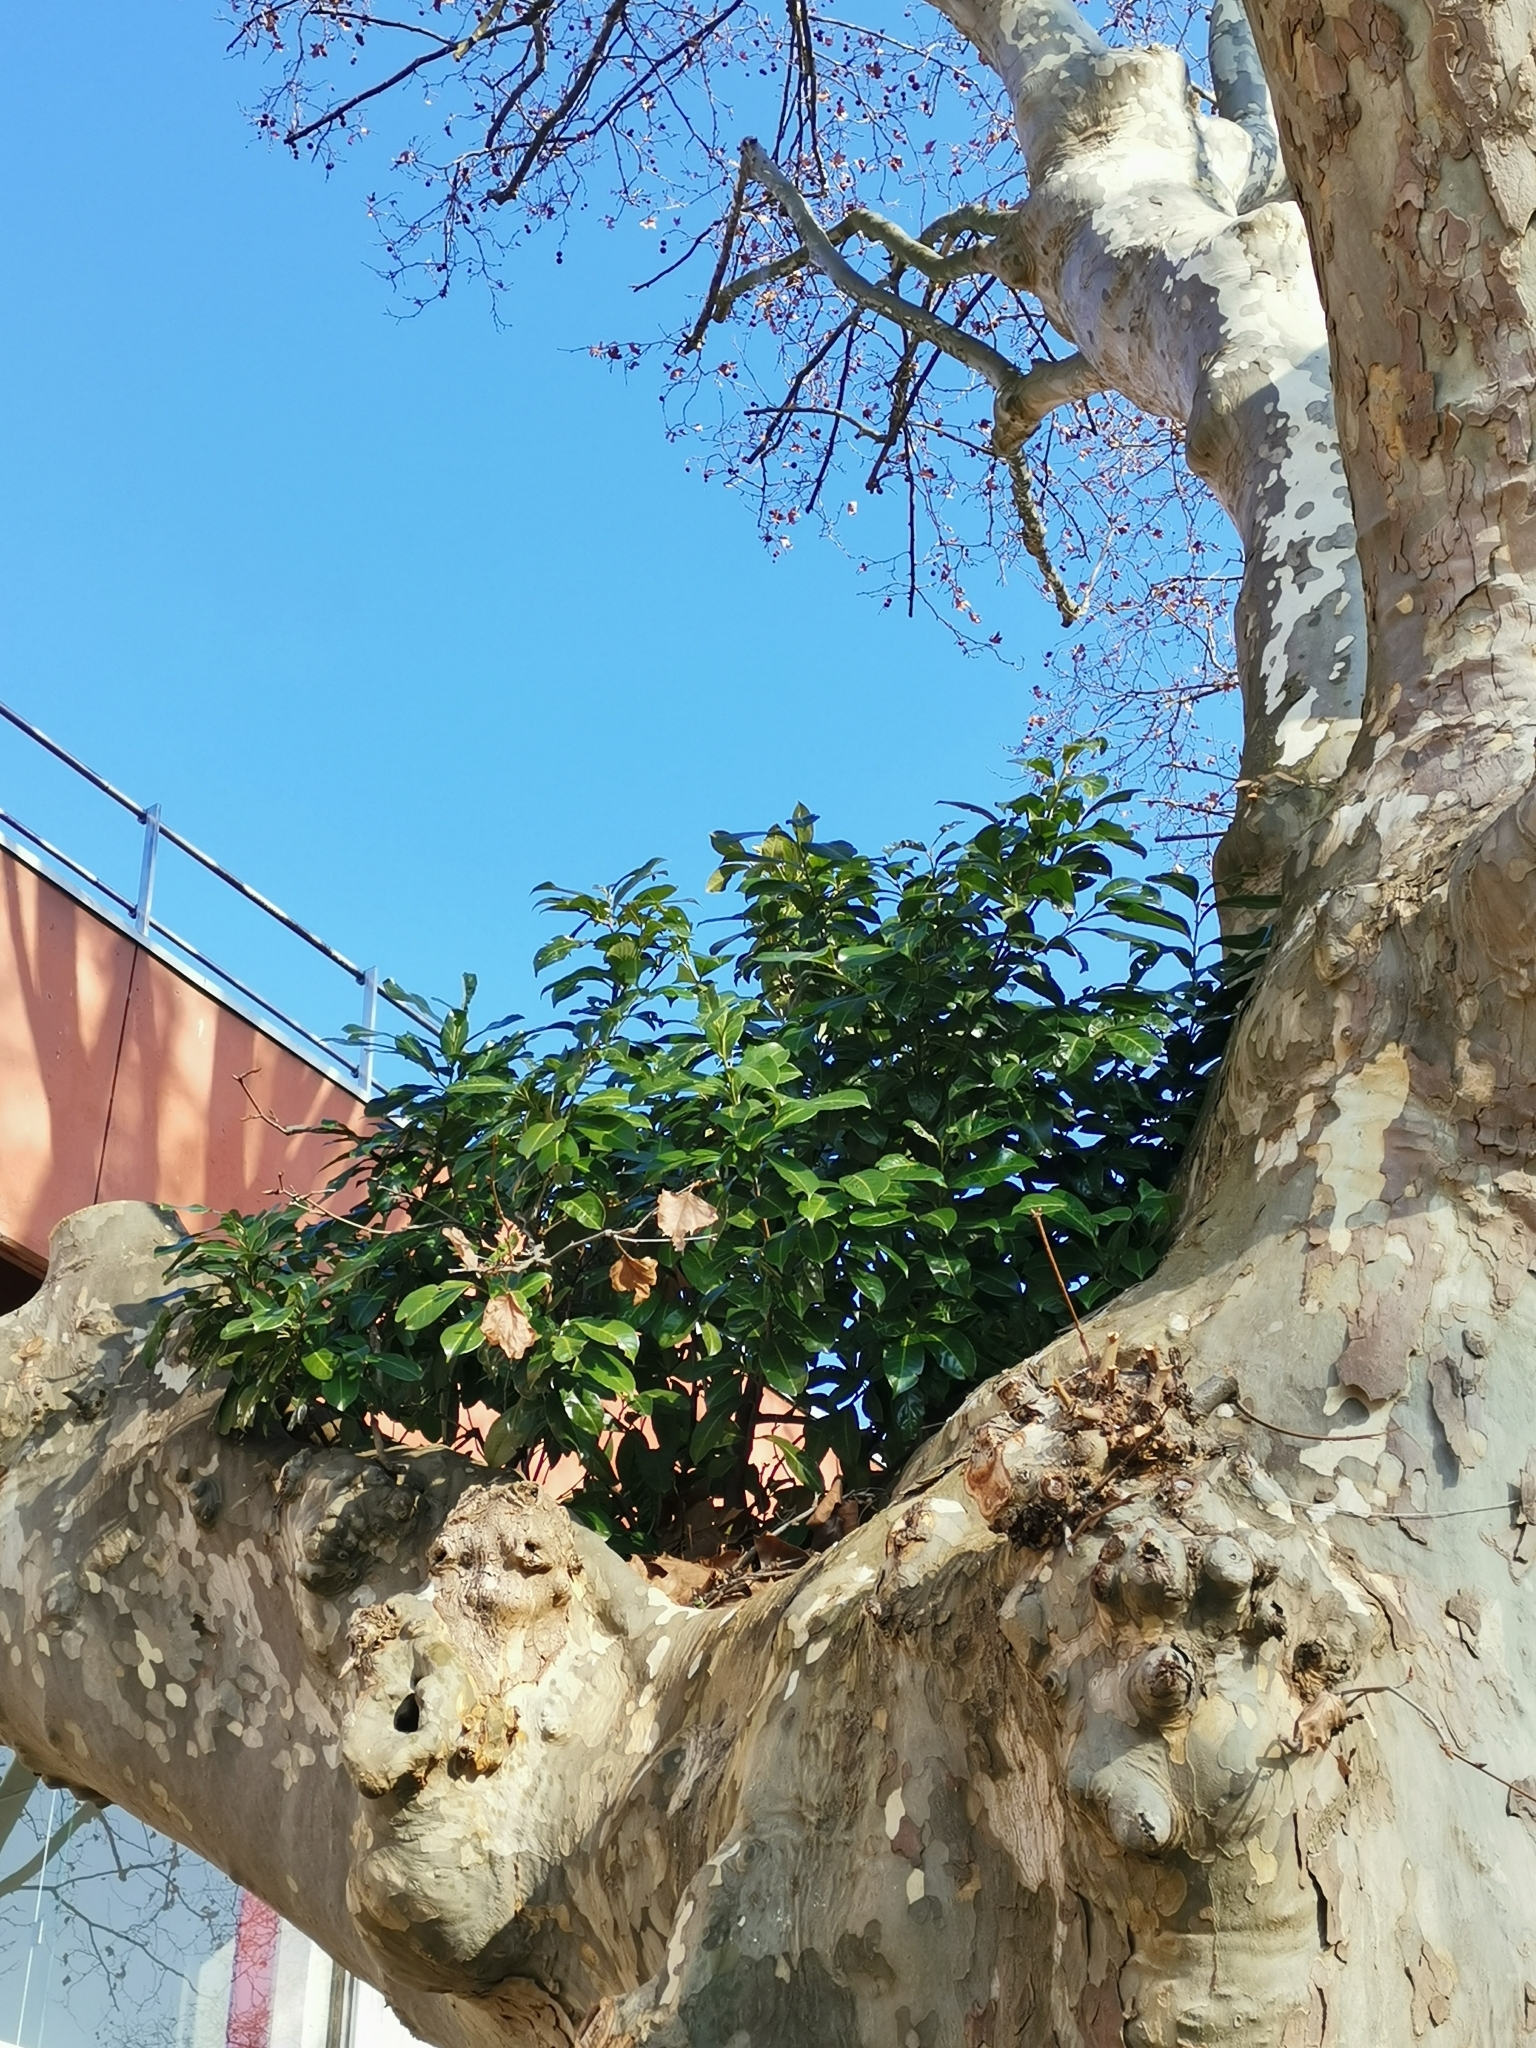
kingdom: Plantae
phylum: Tracheophyta
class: Magnoliopsida
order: Rosales
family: Rosaceae
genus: Prunus
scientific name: Prunus laurocerasus
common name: Cherry laurel
